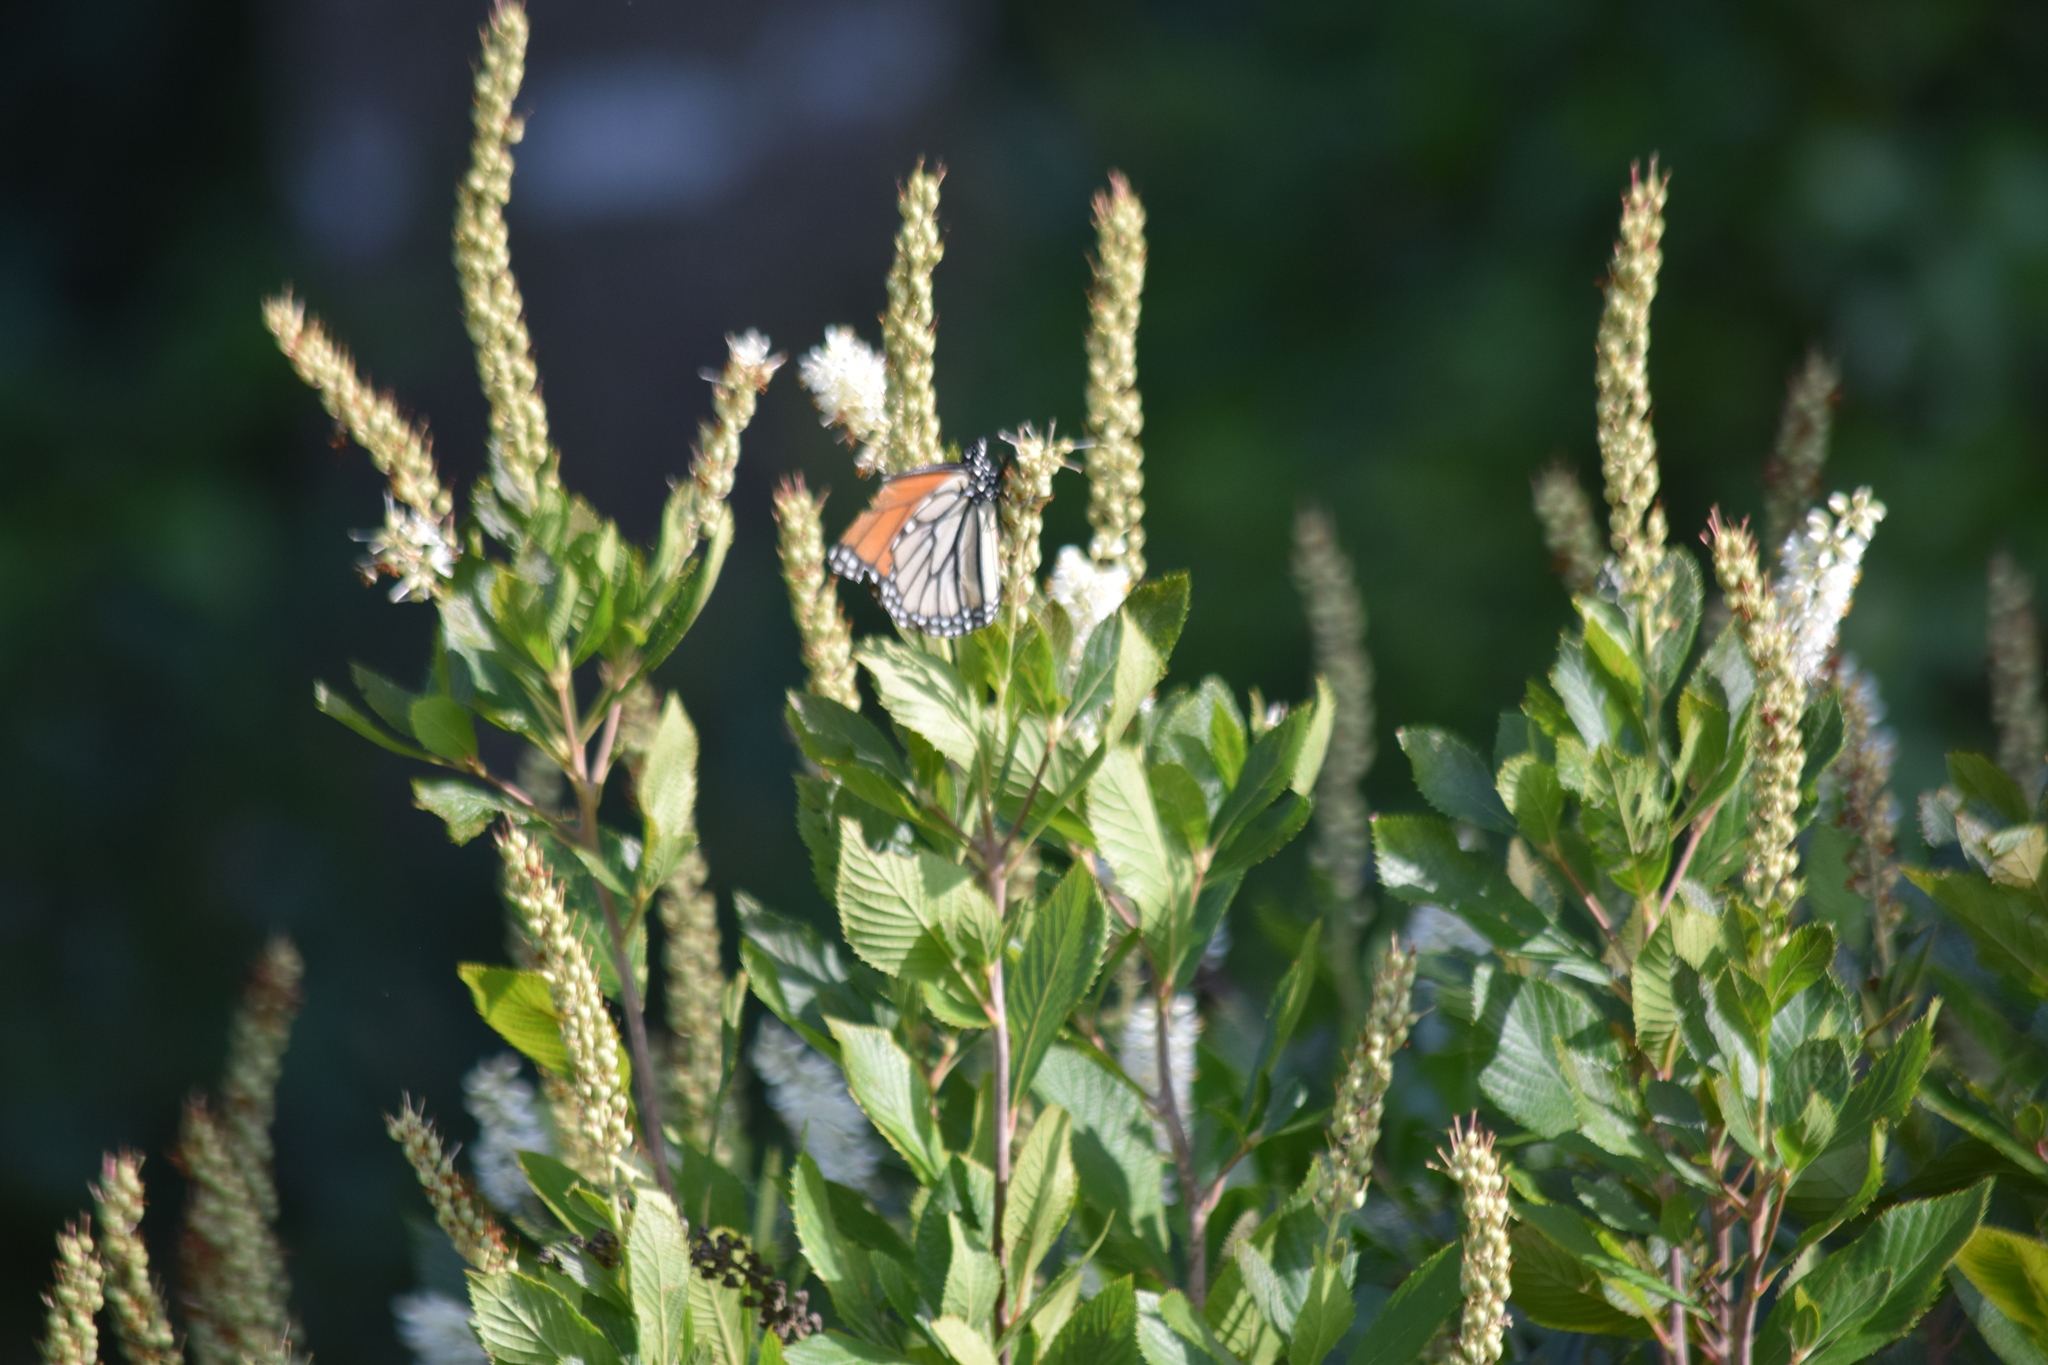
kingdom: Animalia
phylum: Arthropoda
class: Insecta
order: Lepidoptera
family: Nymphalidae
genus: Danaus
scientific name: Danaus plexippus
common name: Monarch
